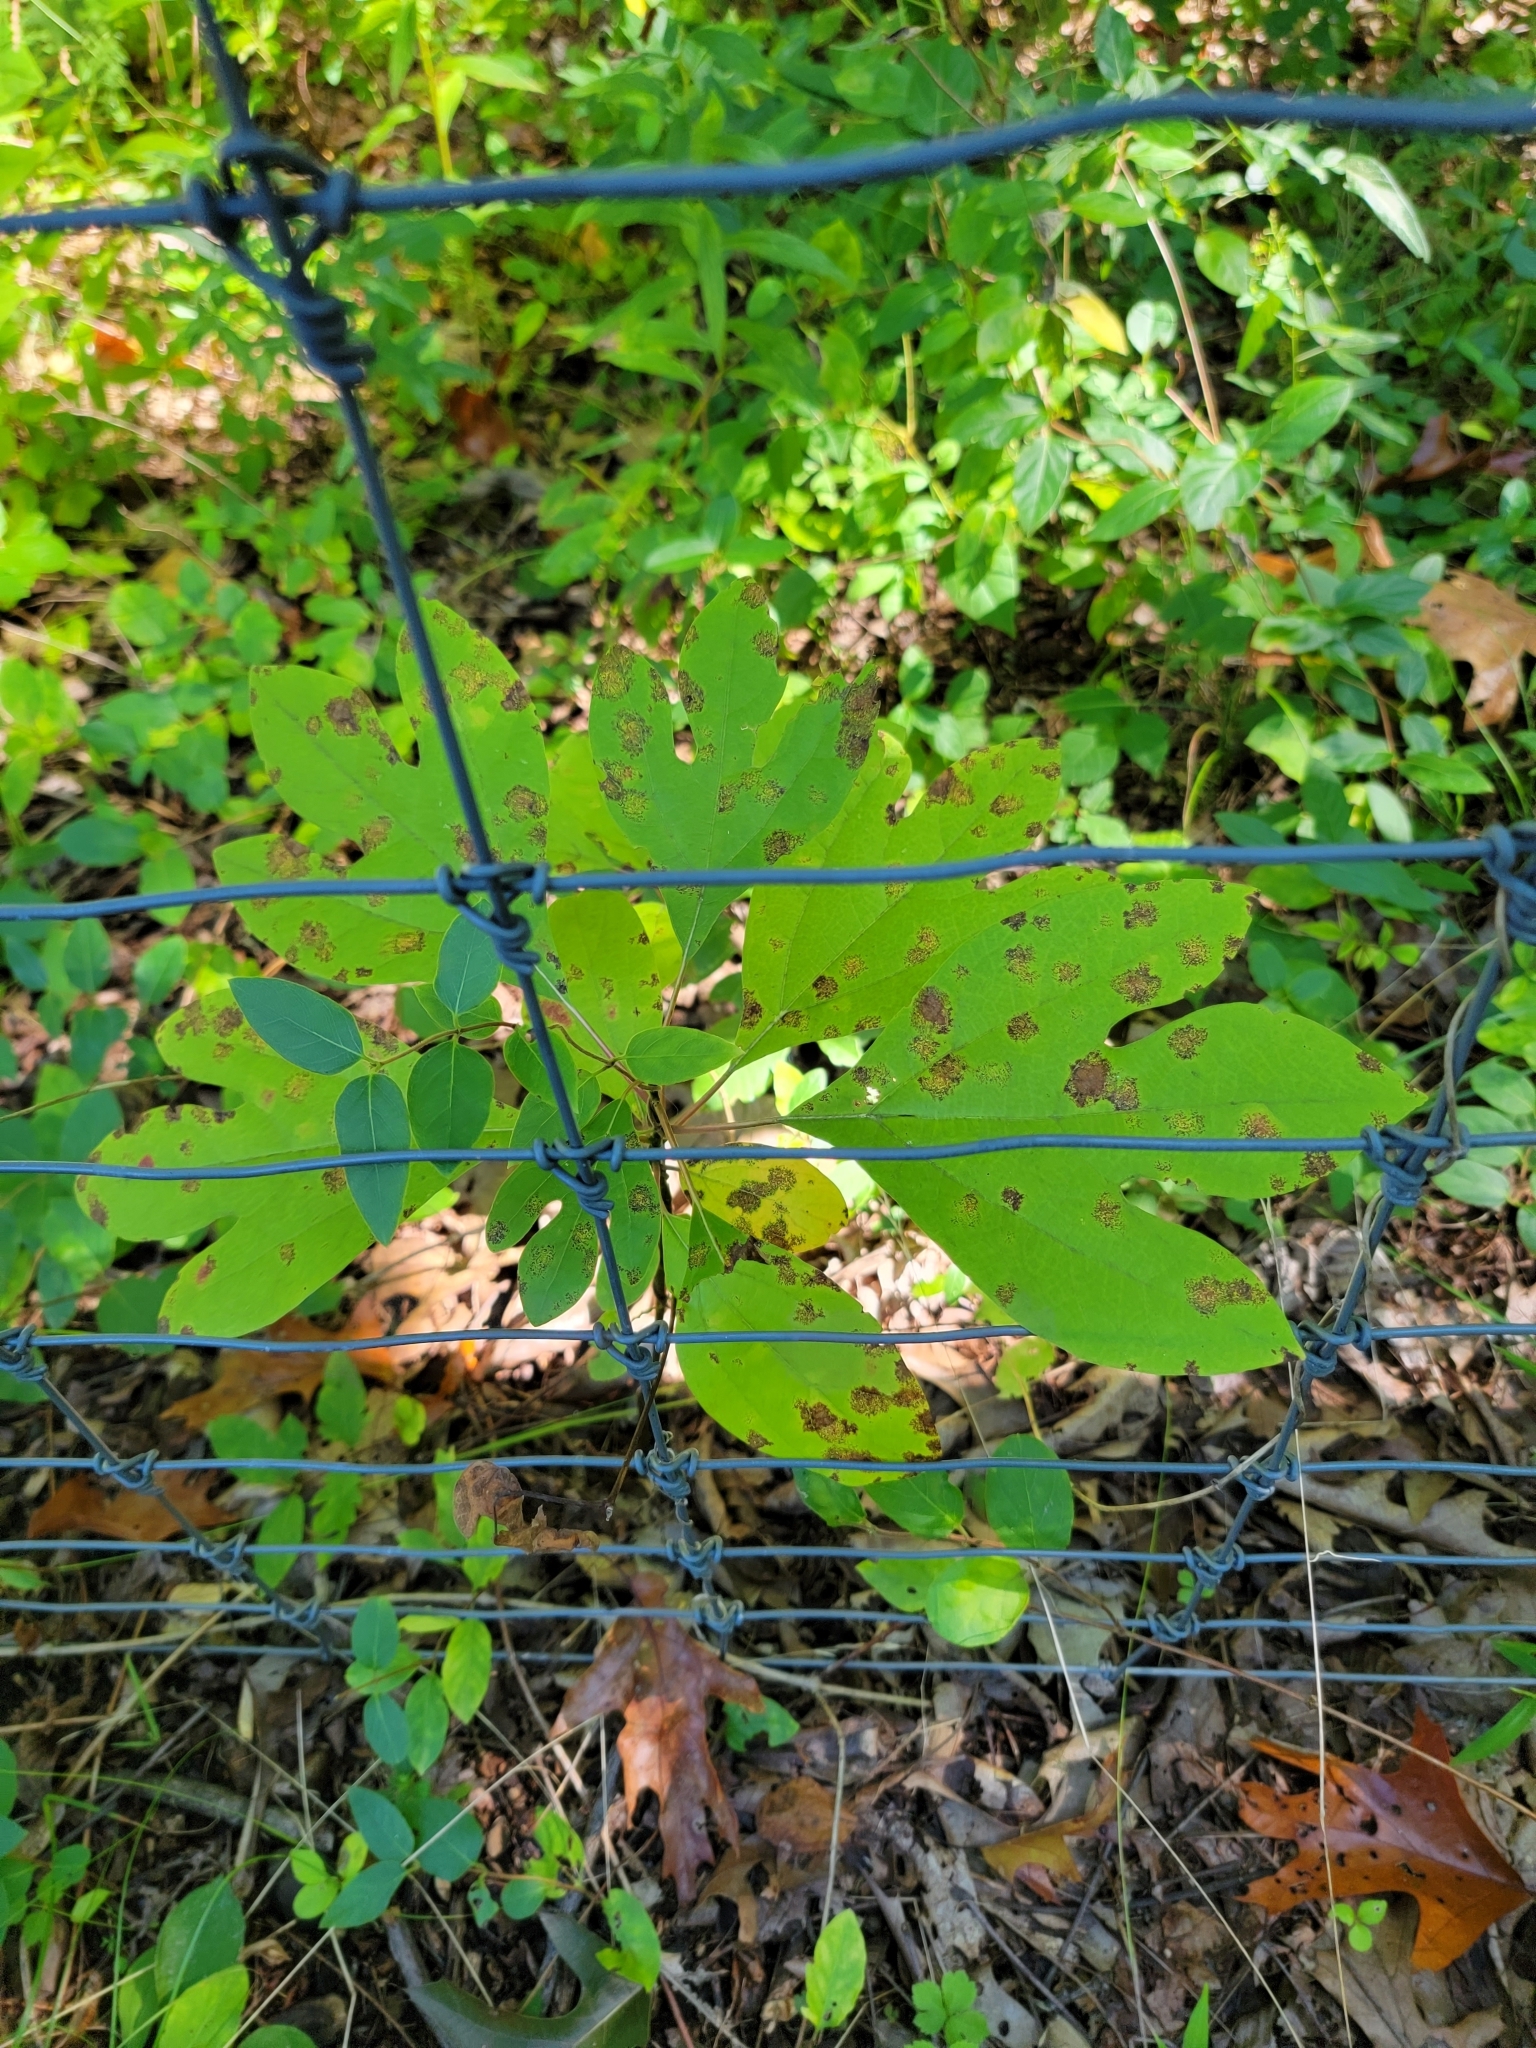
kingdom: Plantae
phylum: Tracheophyta
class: Magnoliopsida
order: Laurales
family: Lauraceae
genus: Sassafras
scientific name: Sassafras albidum
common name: Sassafras
